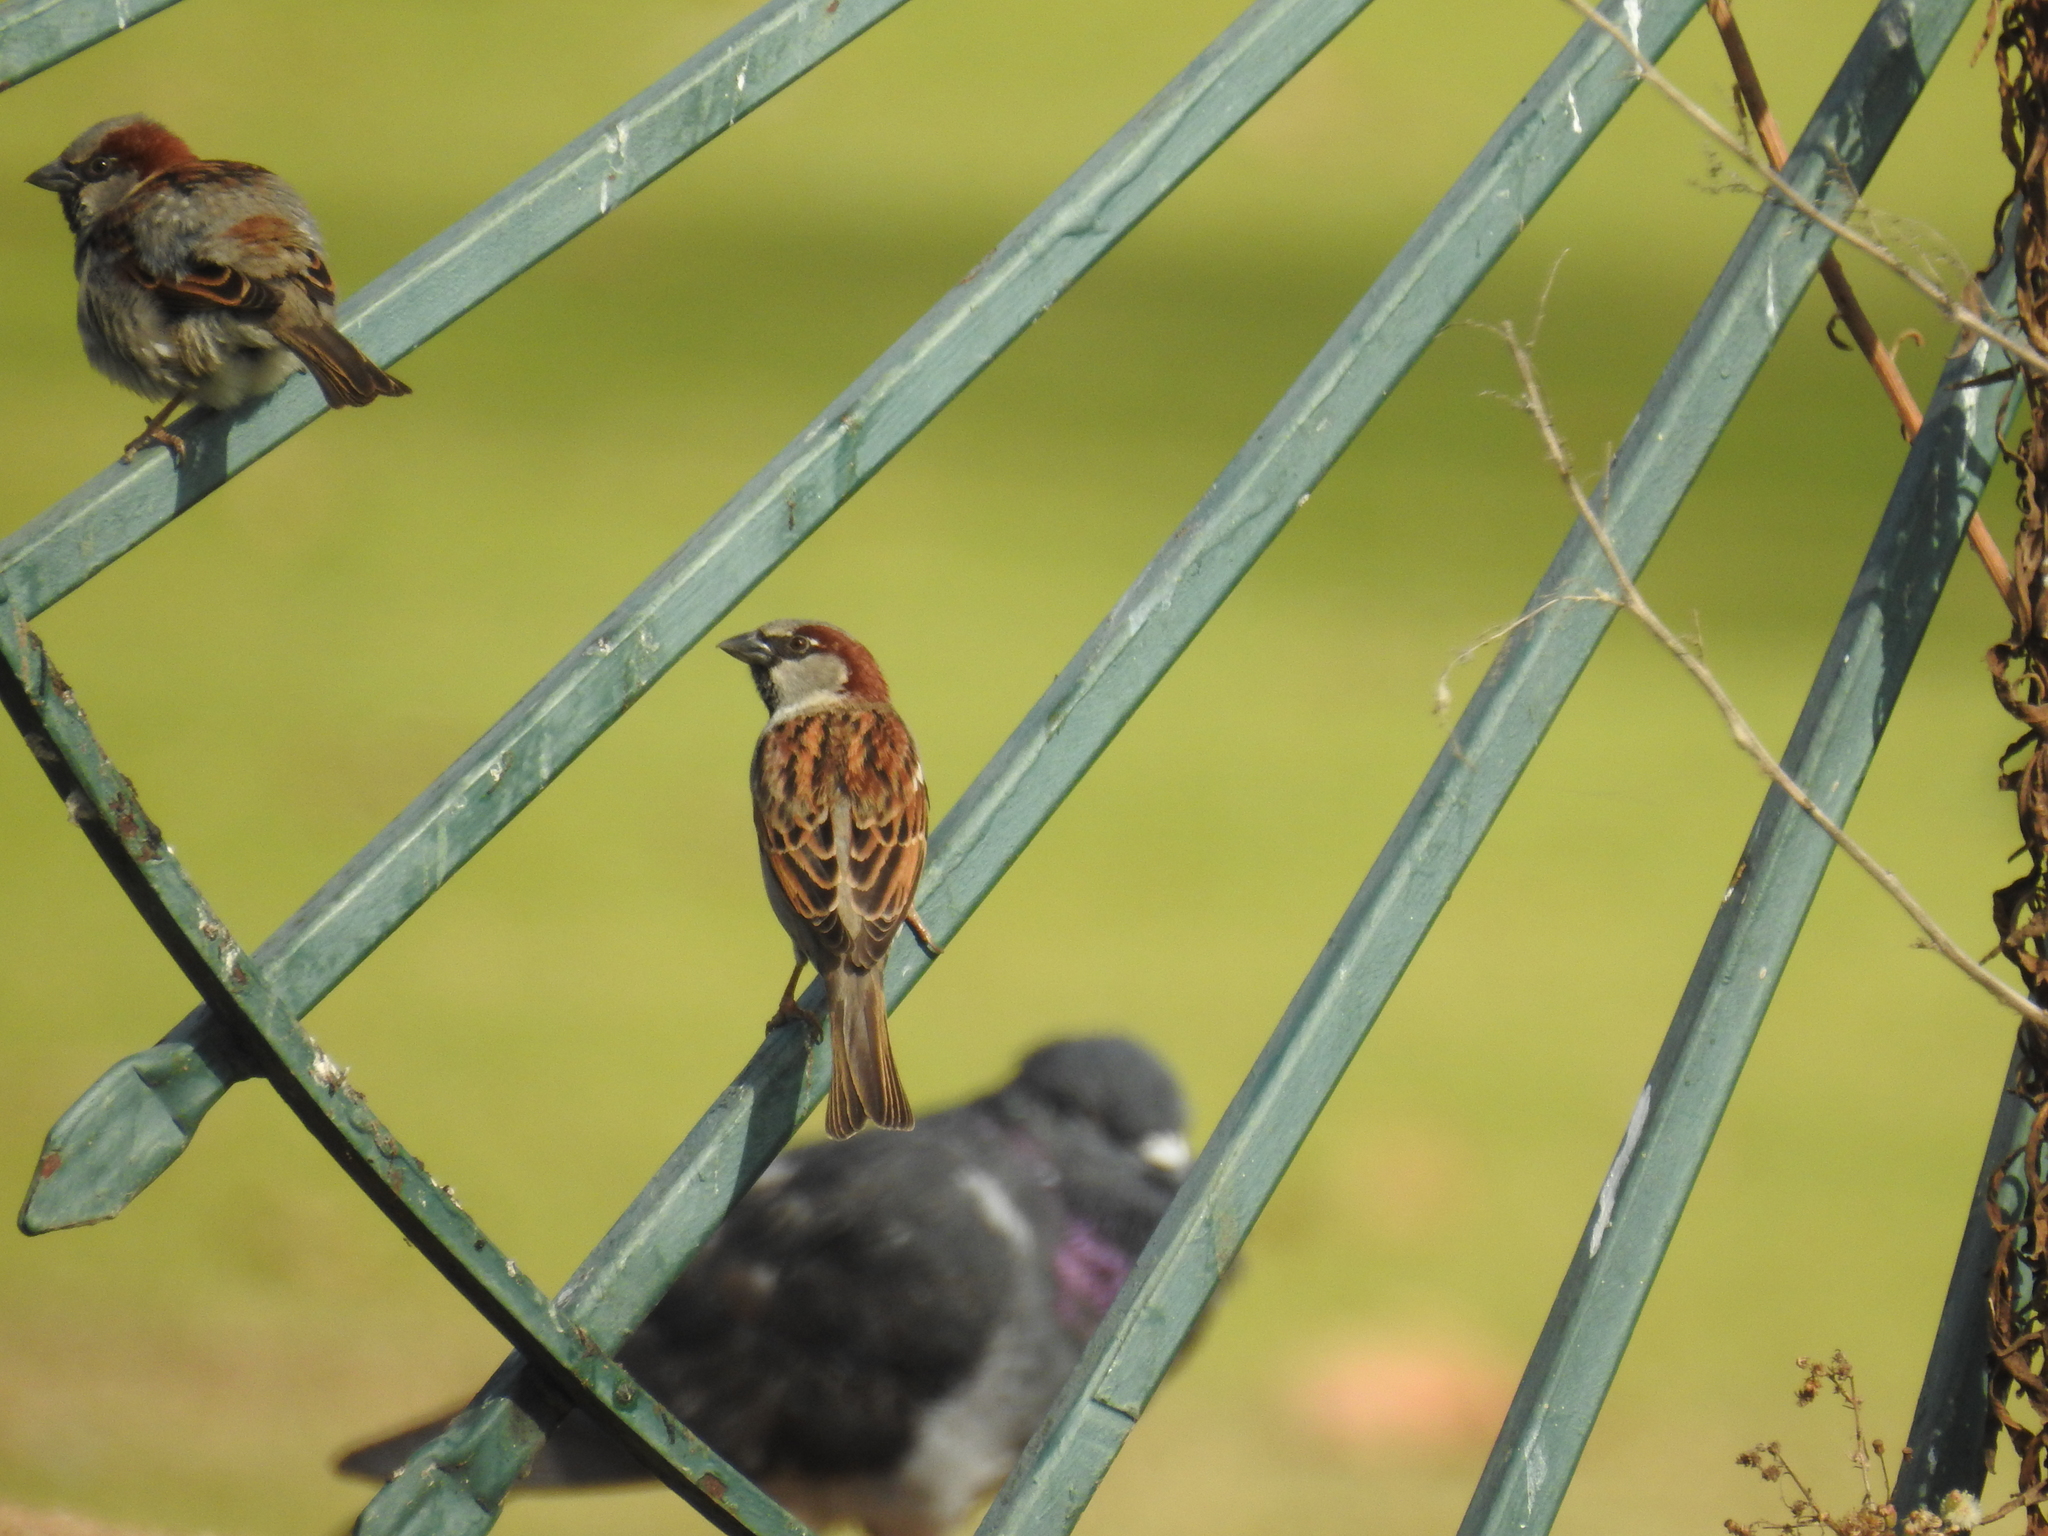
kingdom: Animalia
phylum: Chordata
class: Aves
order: Passeriformes
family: Passeridae
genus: Passer
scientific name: Passer domesticus
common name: House sparrow
